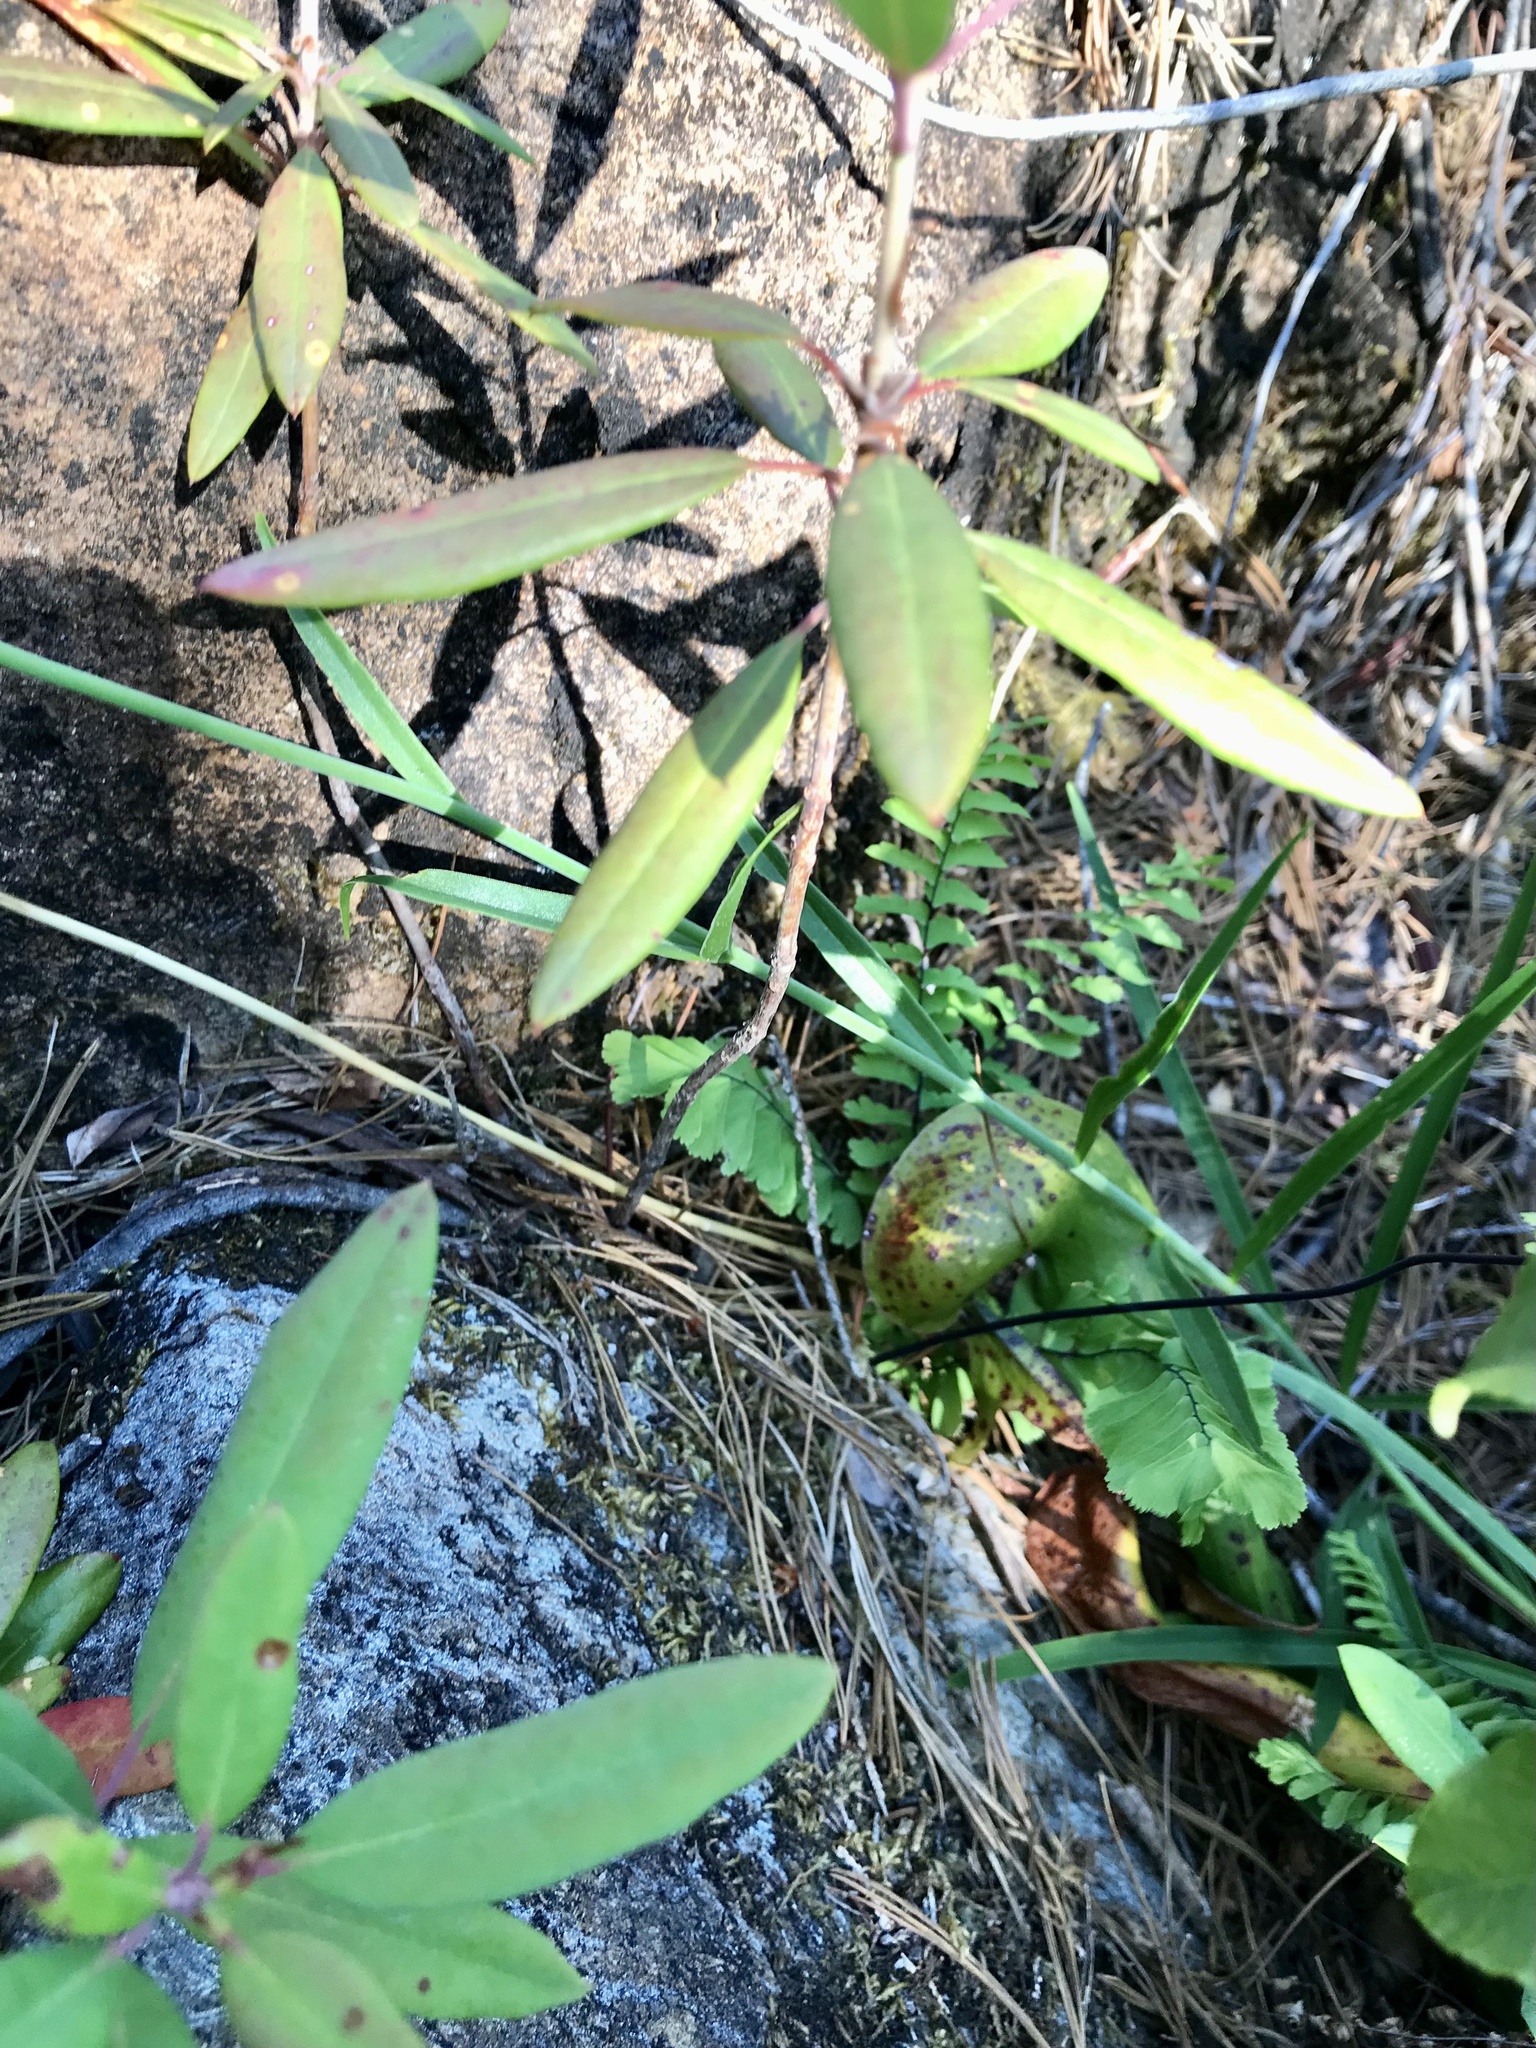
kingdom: Plantae
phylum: Tracheophyta
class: Liliopsida
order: Liliales
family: Liliaceae
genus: Lilium
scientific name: Lilium pardalinum
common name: Panther lily
